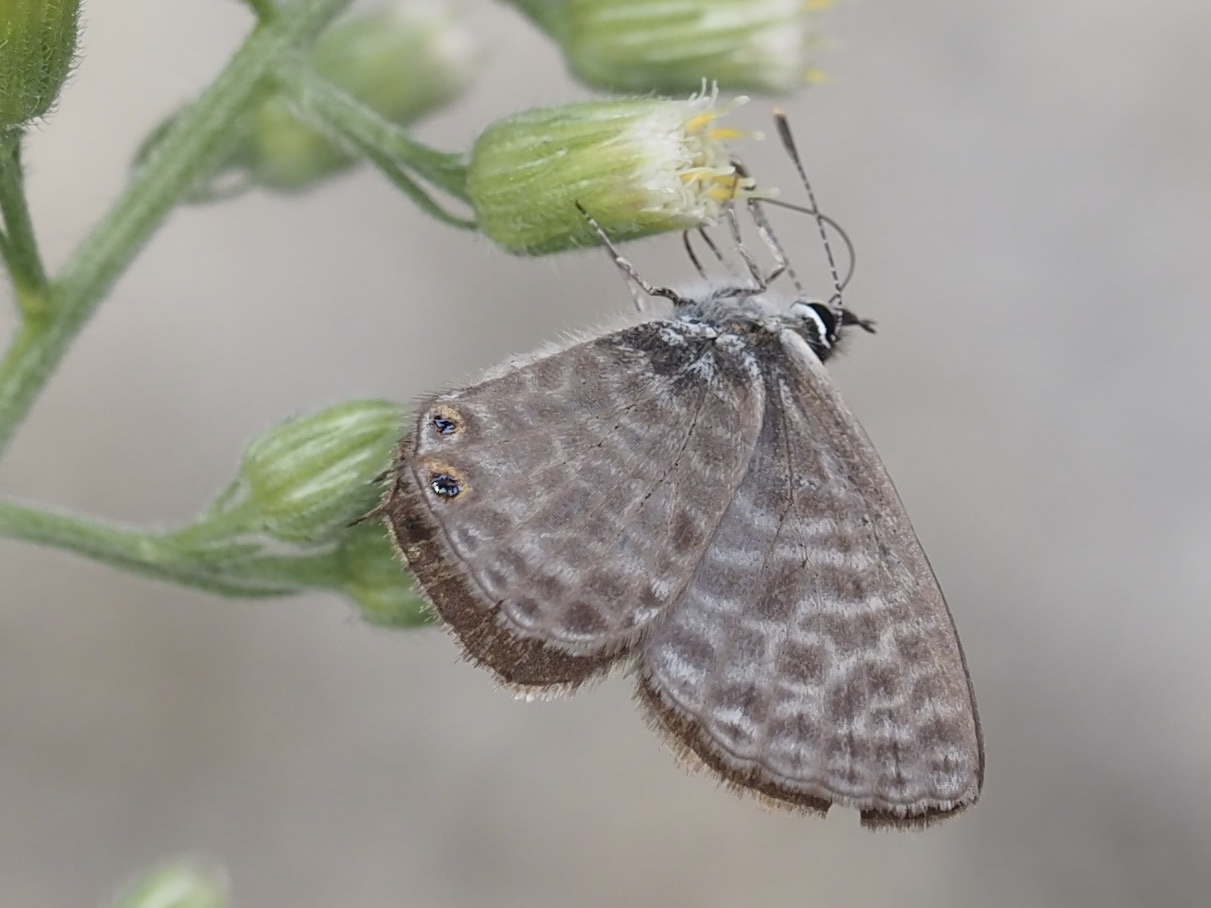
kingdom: Animalia
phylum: Arthropoda
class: Insecta
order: Lepidoptera
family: Lycaenidae
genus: Leptotes
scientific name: Leptotes pirithous
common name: Lang's short-tailed blue
